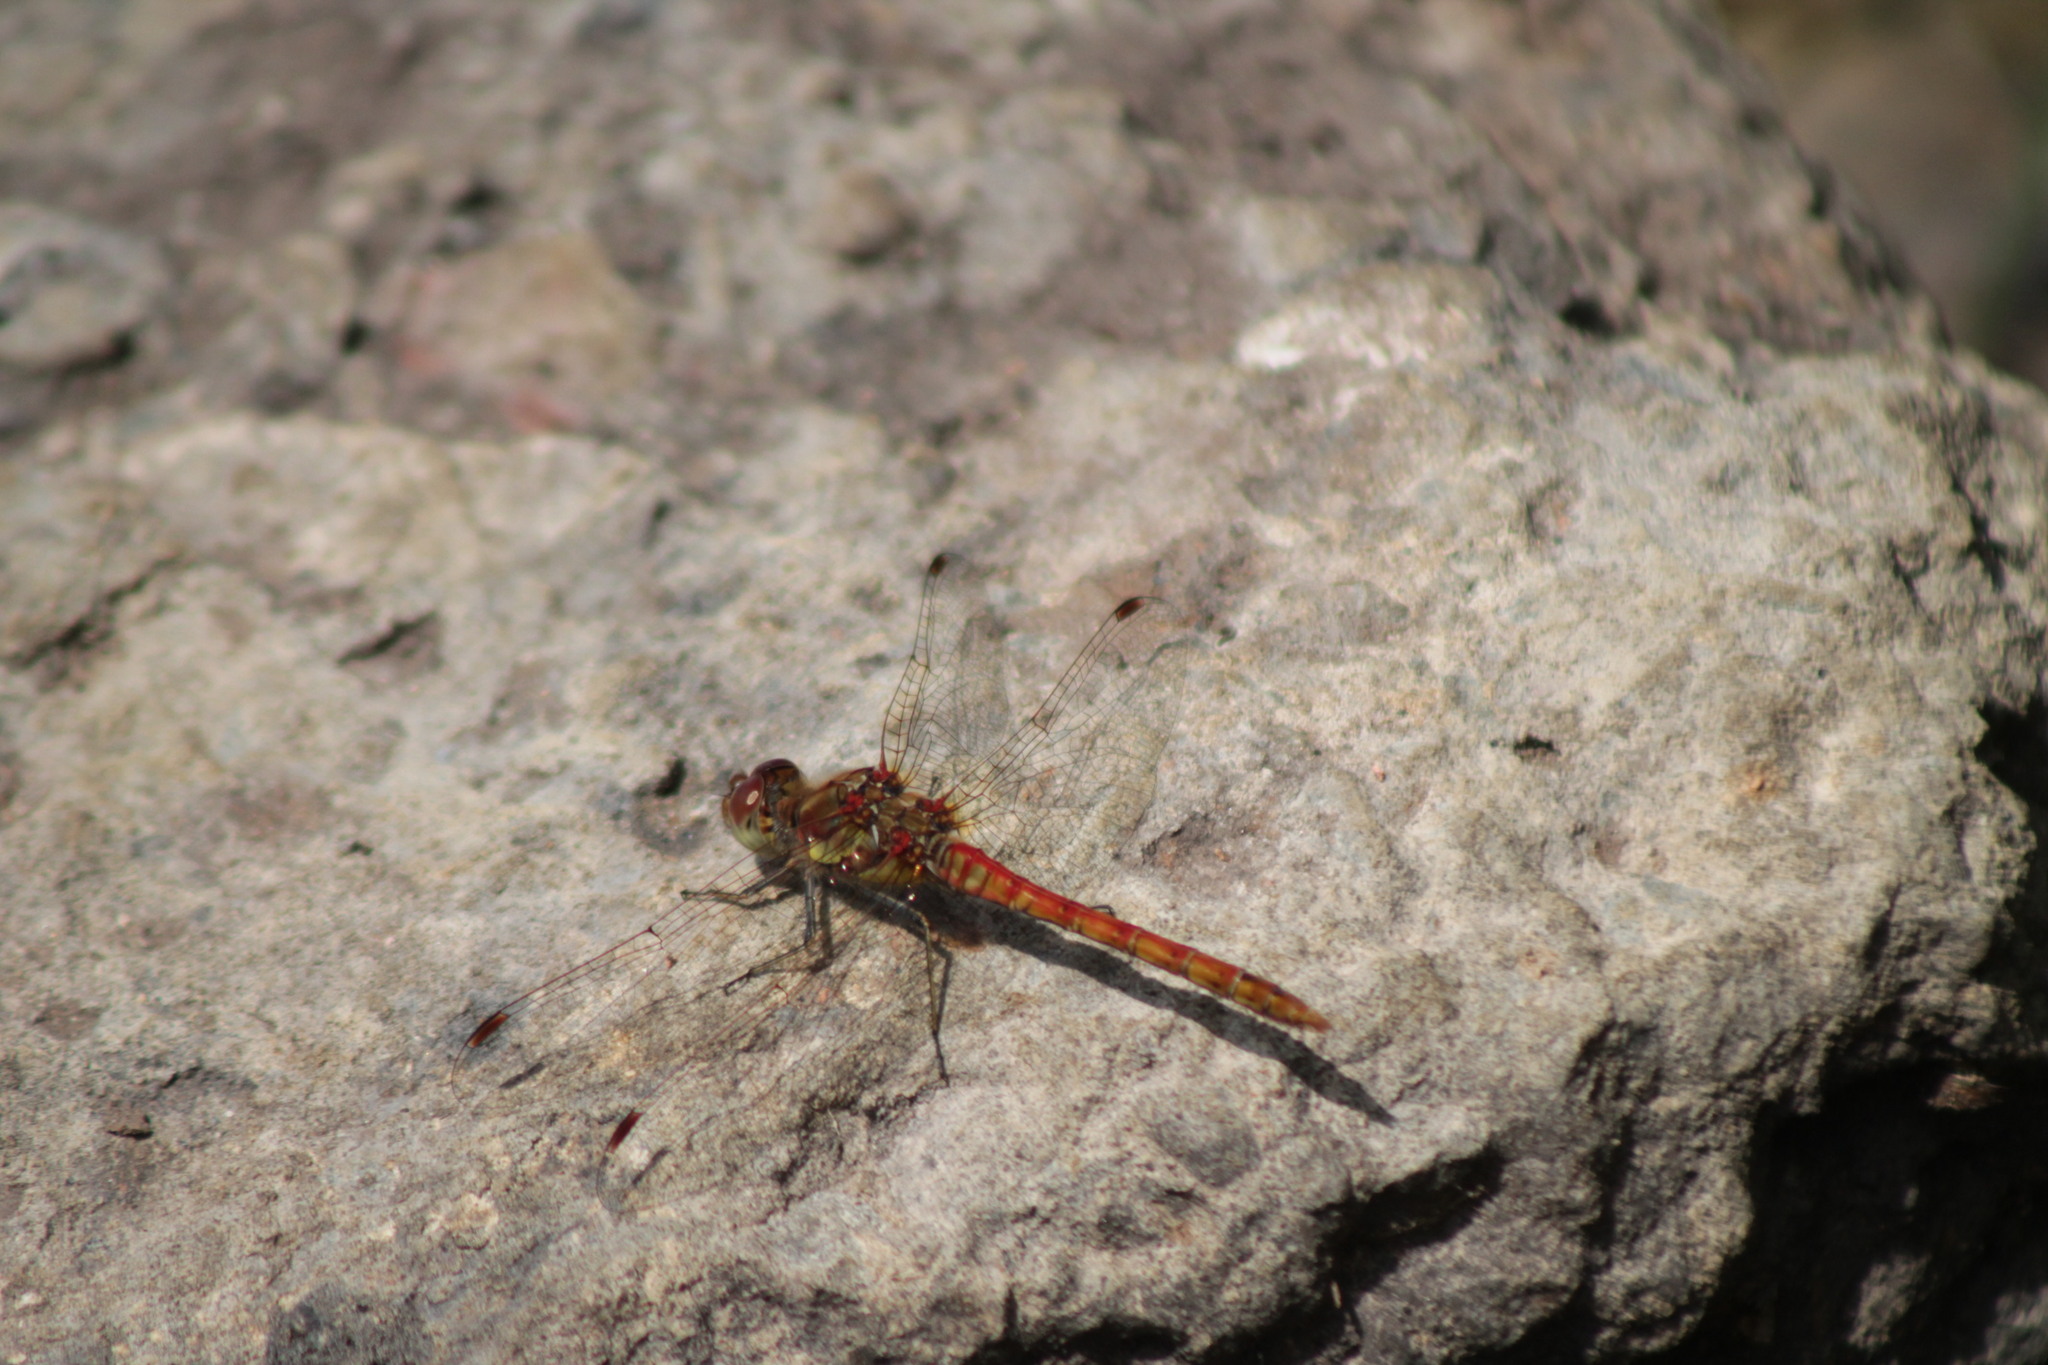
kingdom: Animalia
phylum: Arthropoda
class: Insecta
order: Odonata
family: Libellulidae
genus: Sympetrum
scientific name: Sympetrum striolatum
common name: Common darter
